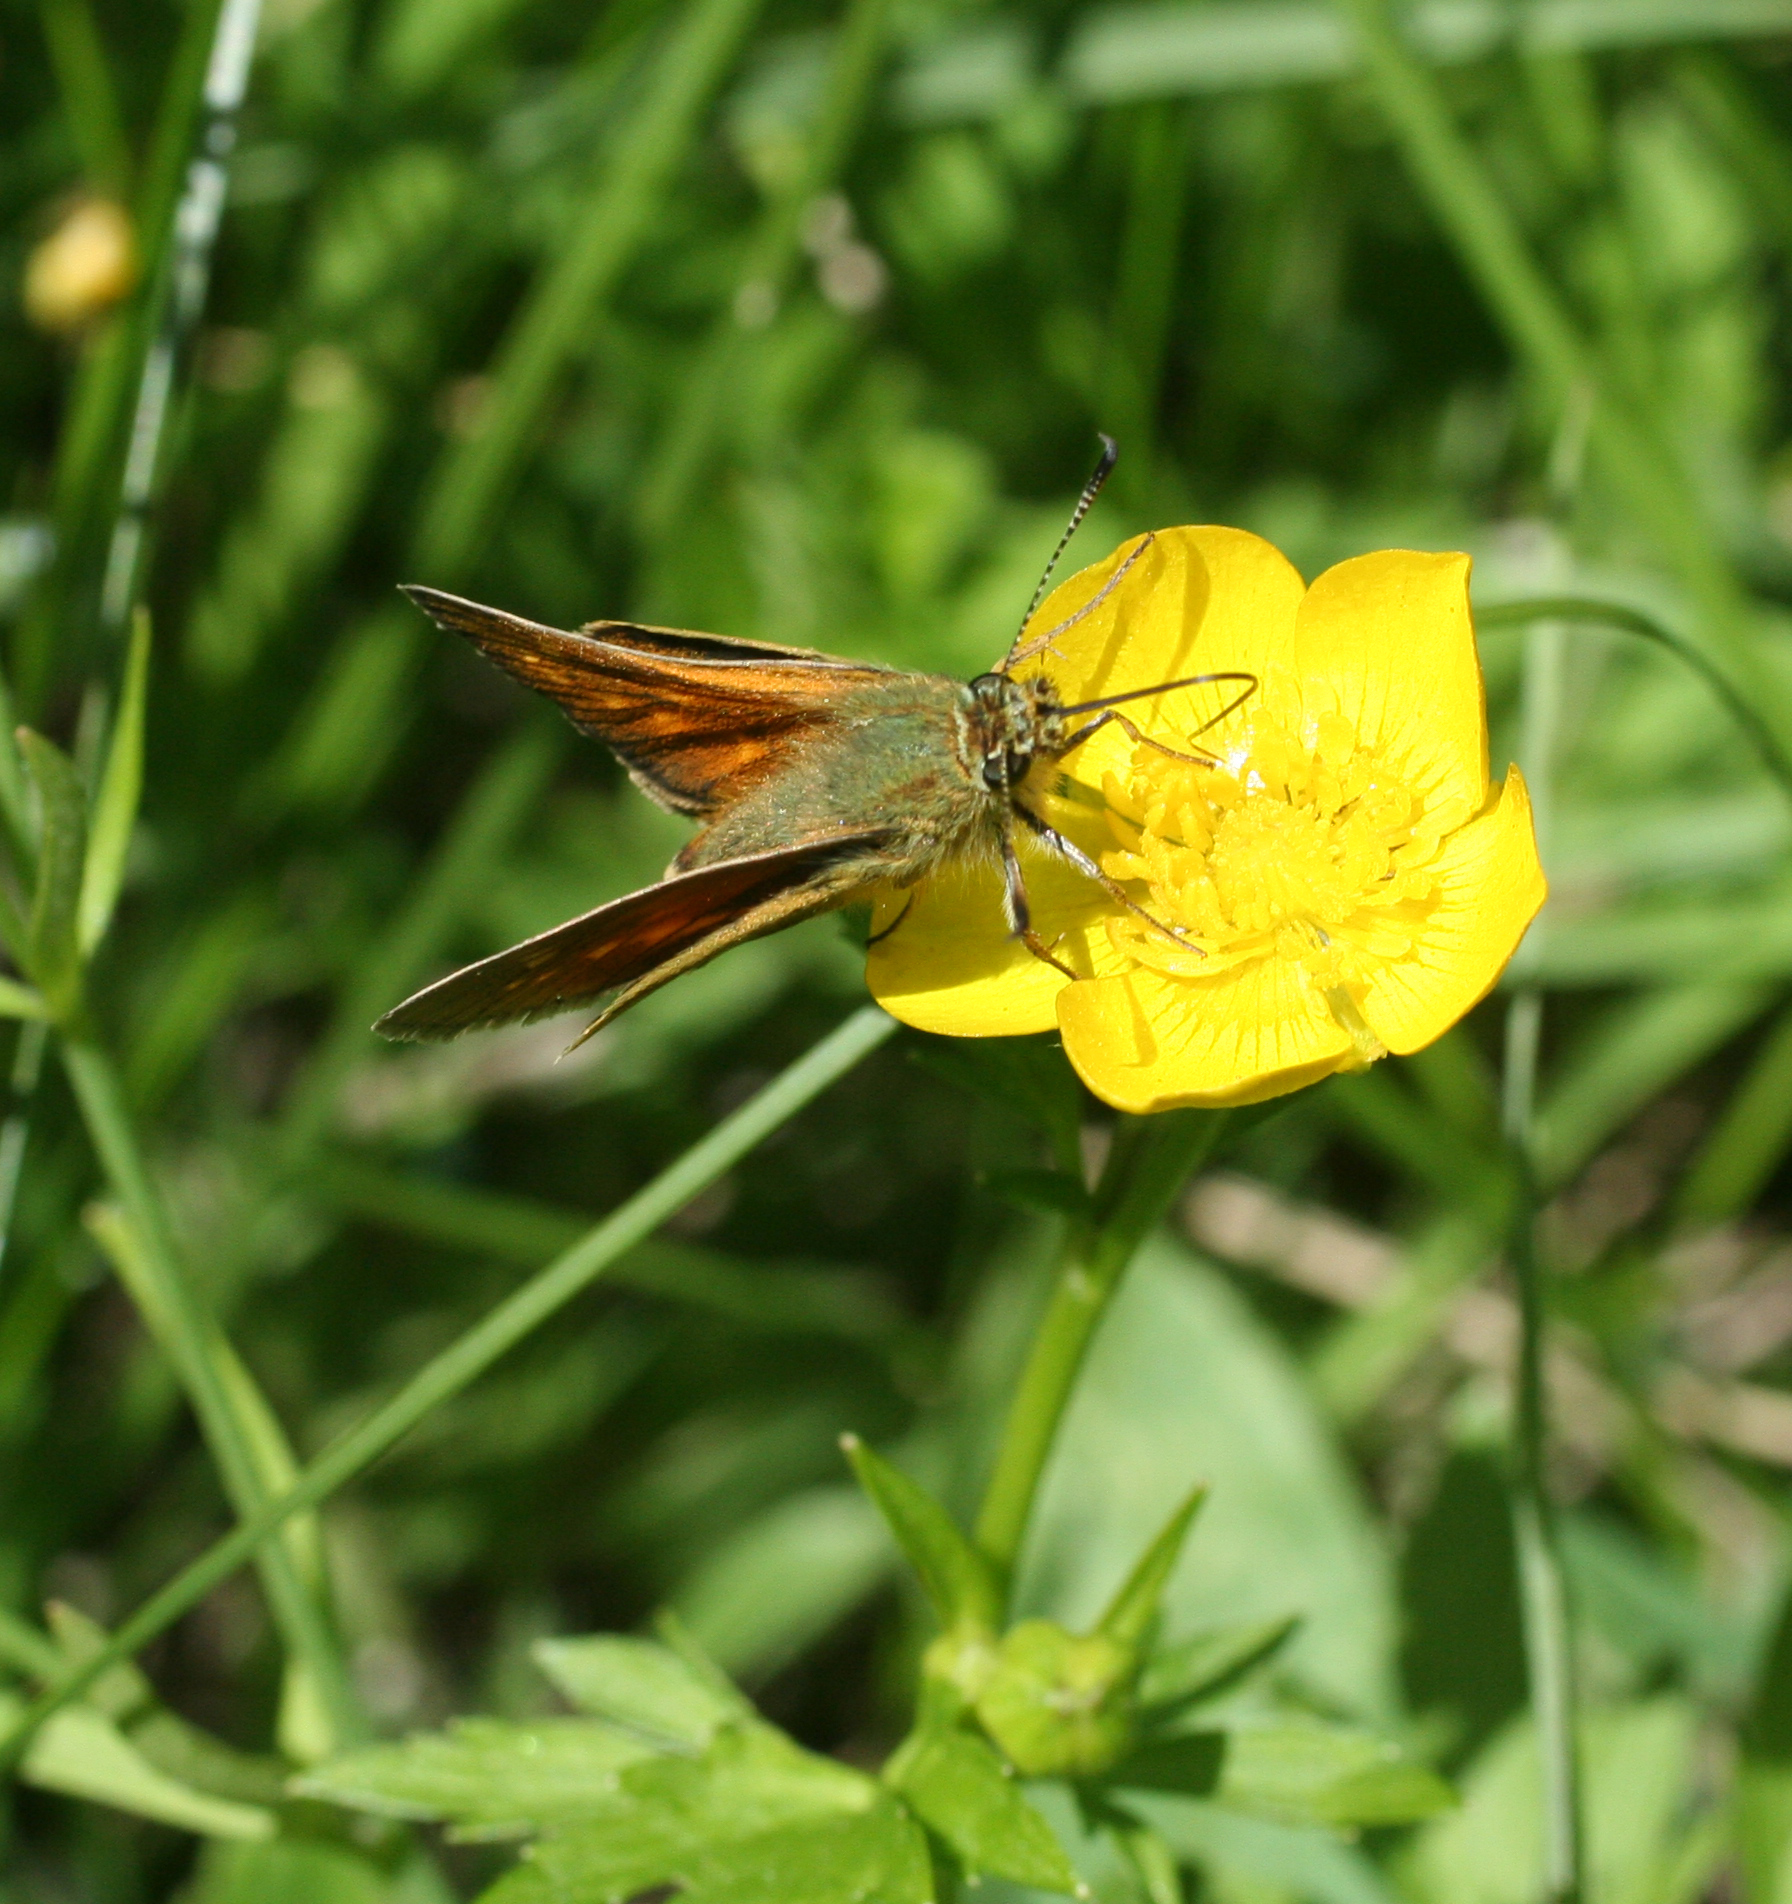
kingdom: Animalia
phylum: Arthropoda
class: Insecta
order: Lepidoptera
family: Hesperiidae
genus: Ochlodes
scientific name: Ochlodes venata
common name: Large skipper
